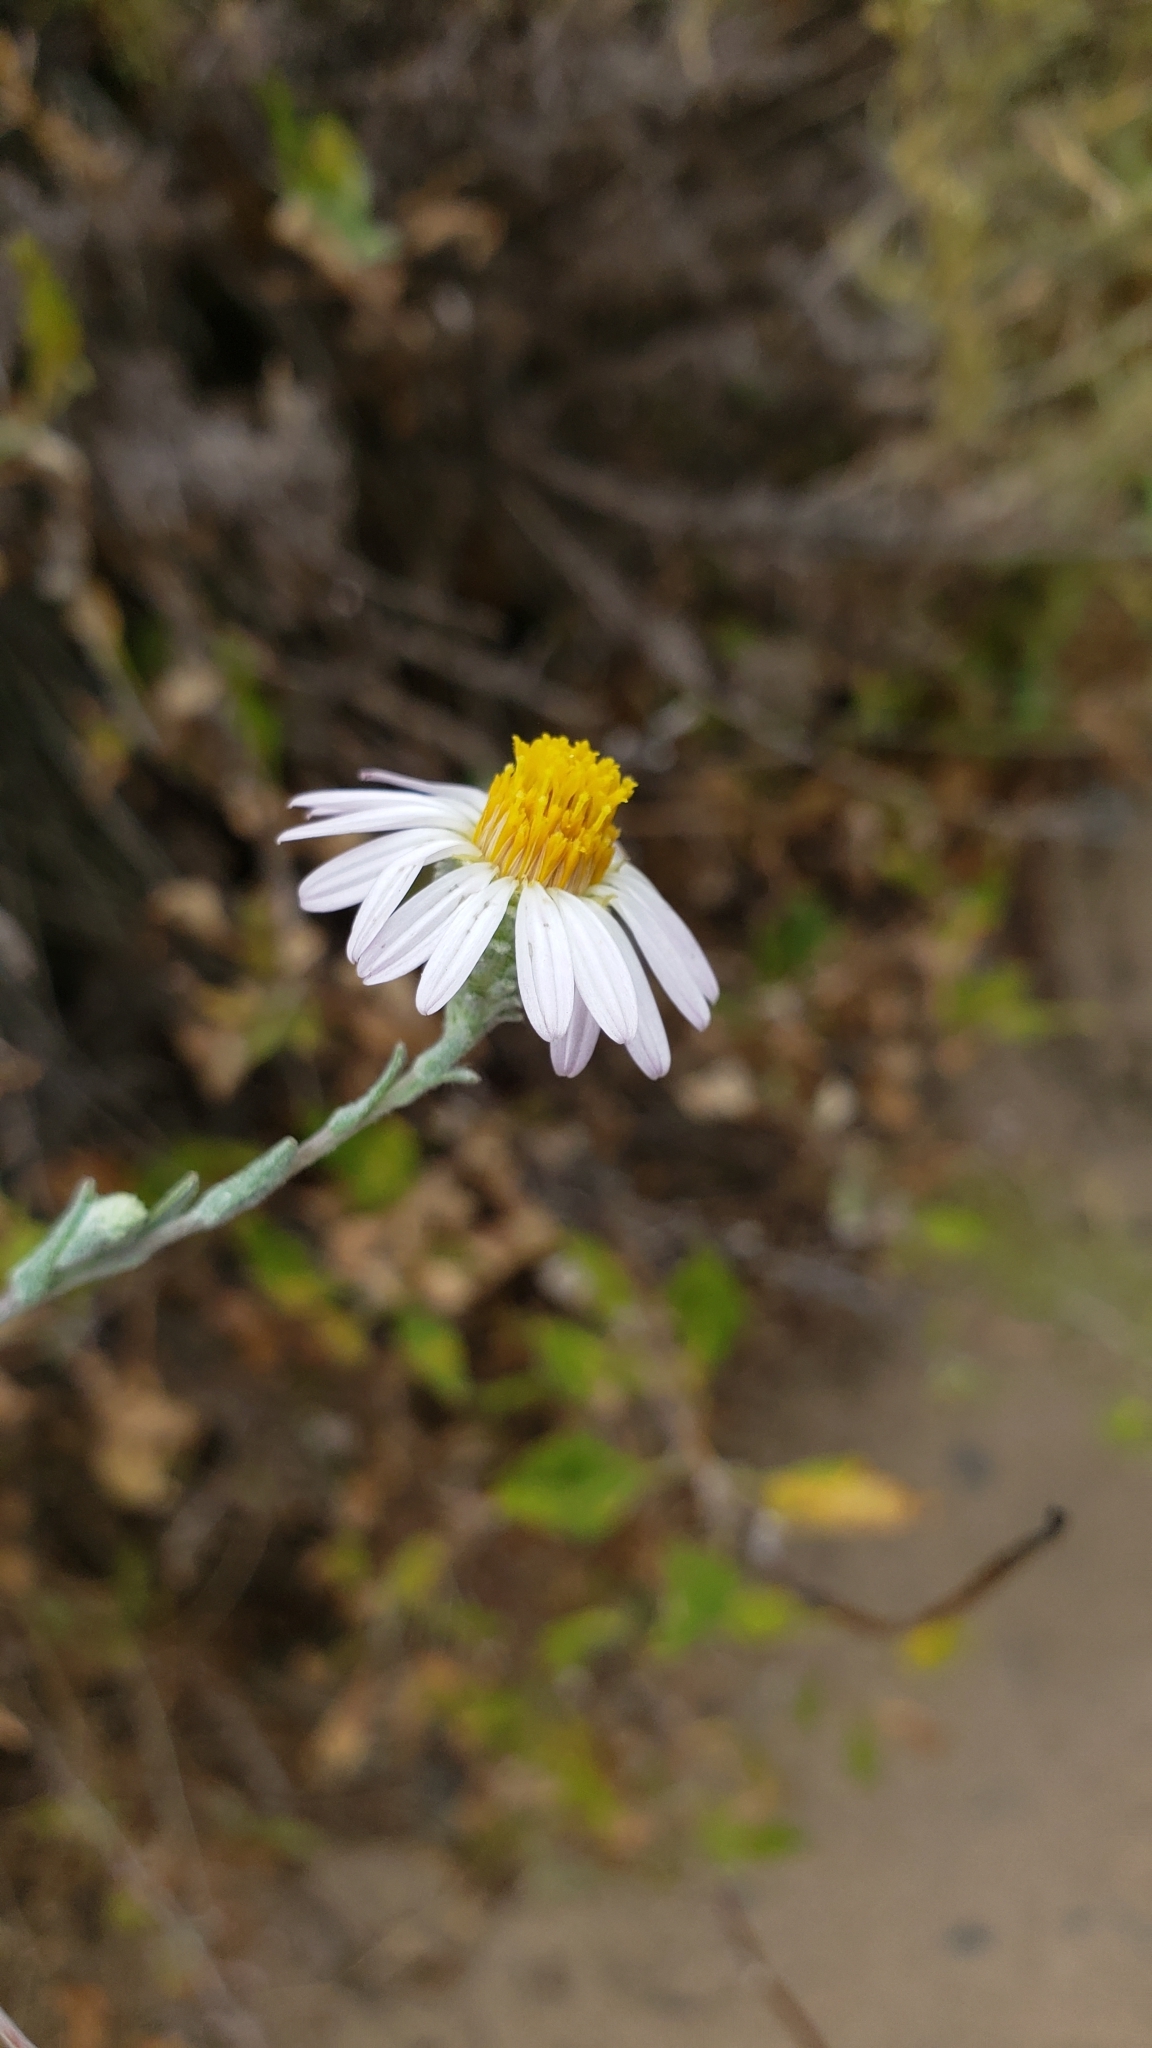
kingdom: Plantae
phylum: Tracheophyta
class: Magnoliopsida
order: Asterales
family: Asteraceae
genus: Corethrogyne
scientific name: Corethrogyne filaginifolia
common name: Sand-aster
